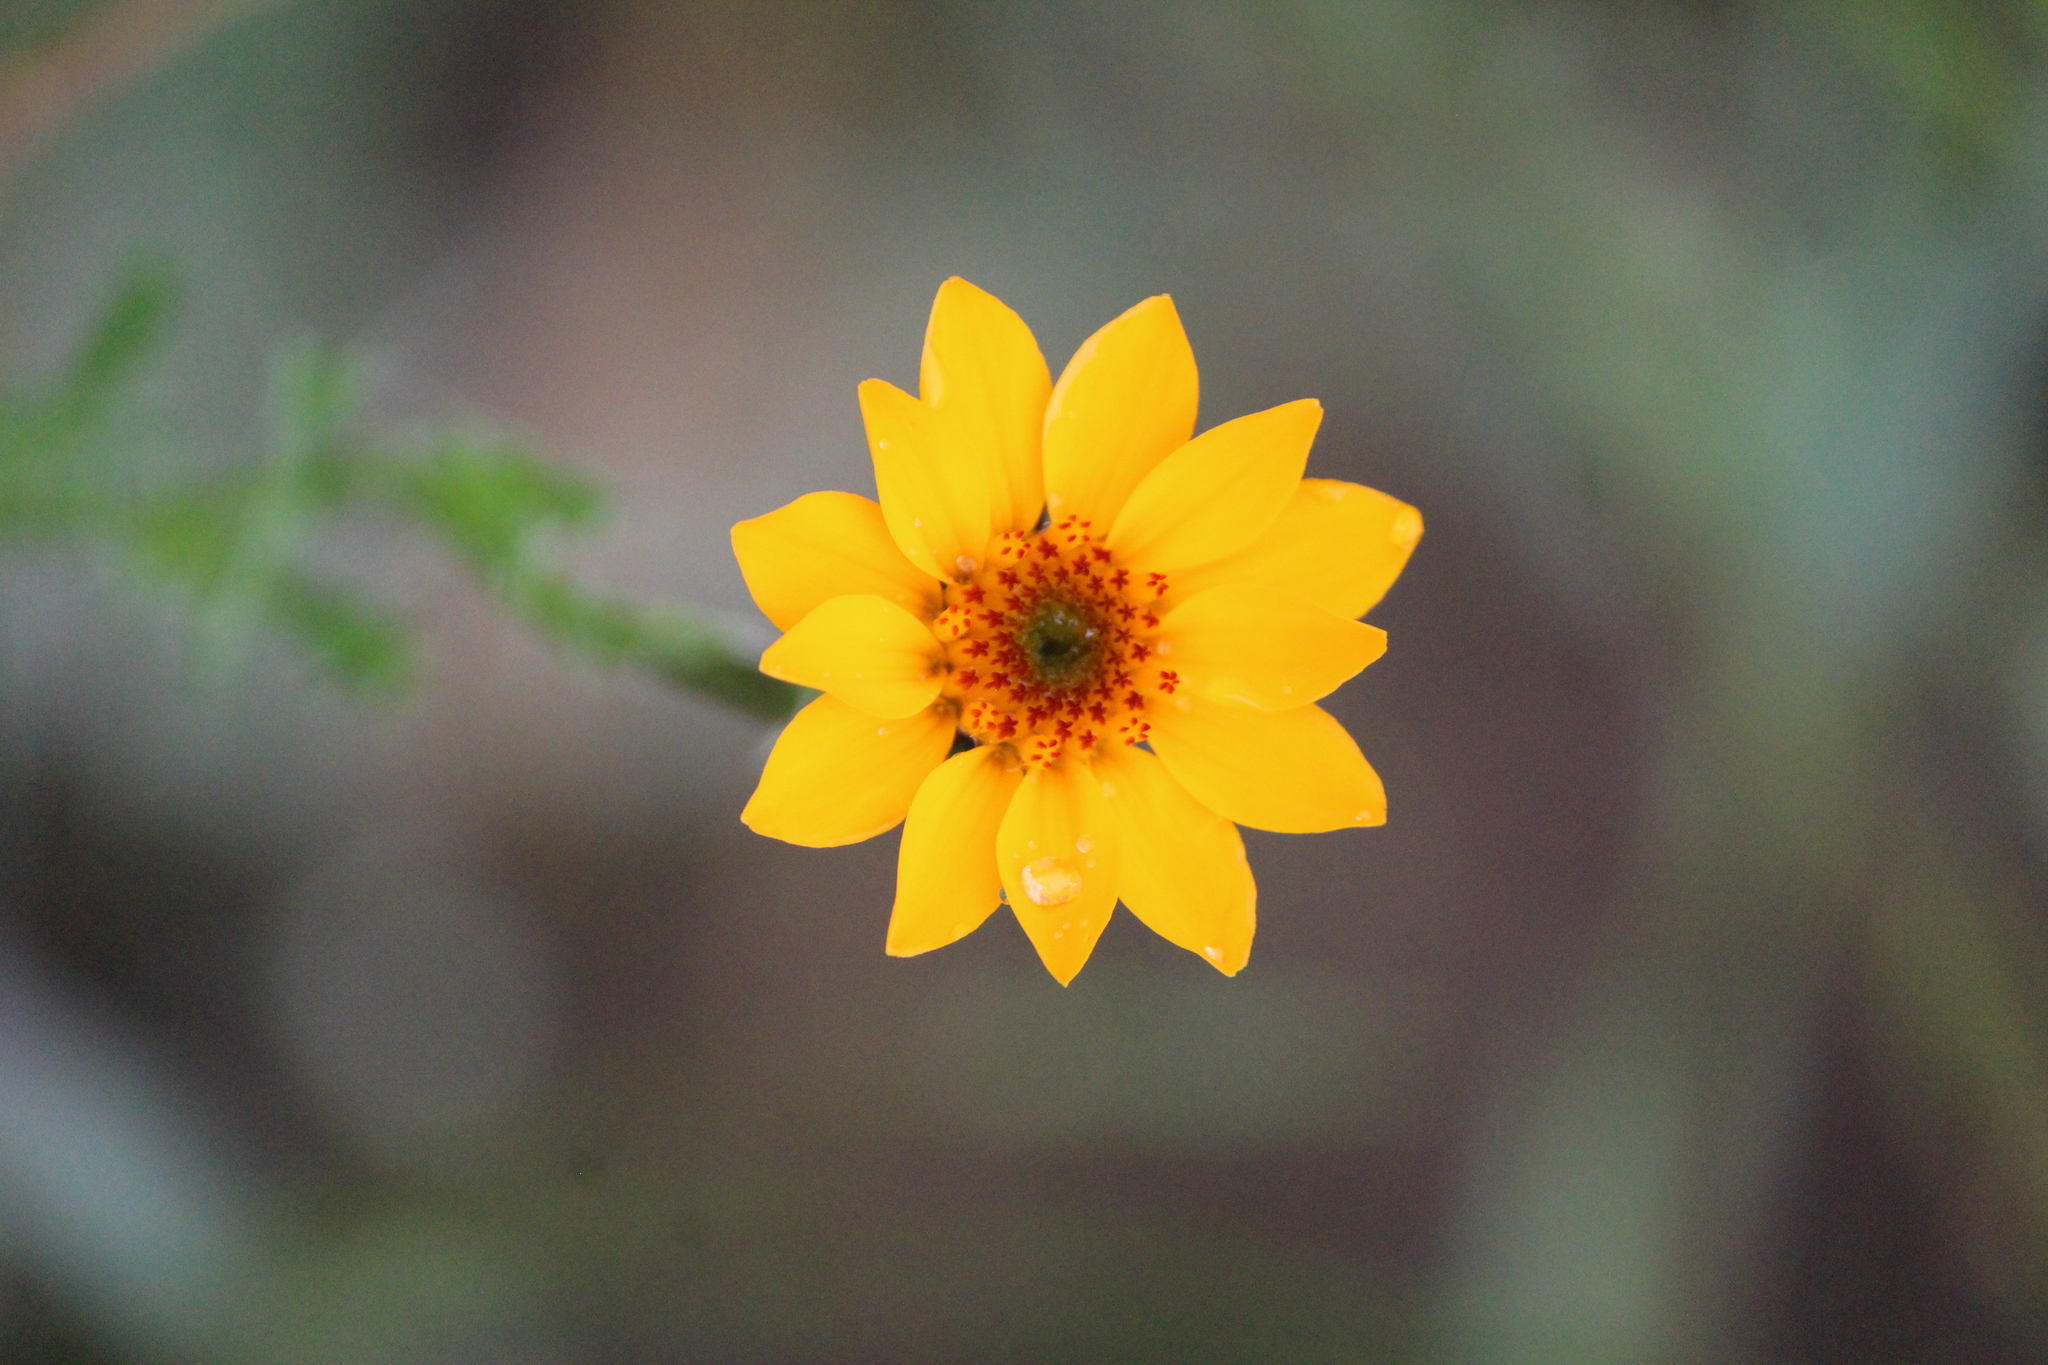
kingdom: Plantae
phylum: Tracheophyta
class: Magnoliopsida
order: Asterales
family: Asteraceae
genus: Adenophyllum
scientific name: Adenophyllum cancellatum
